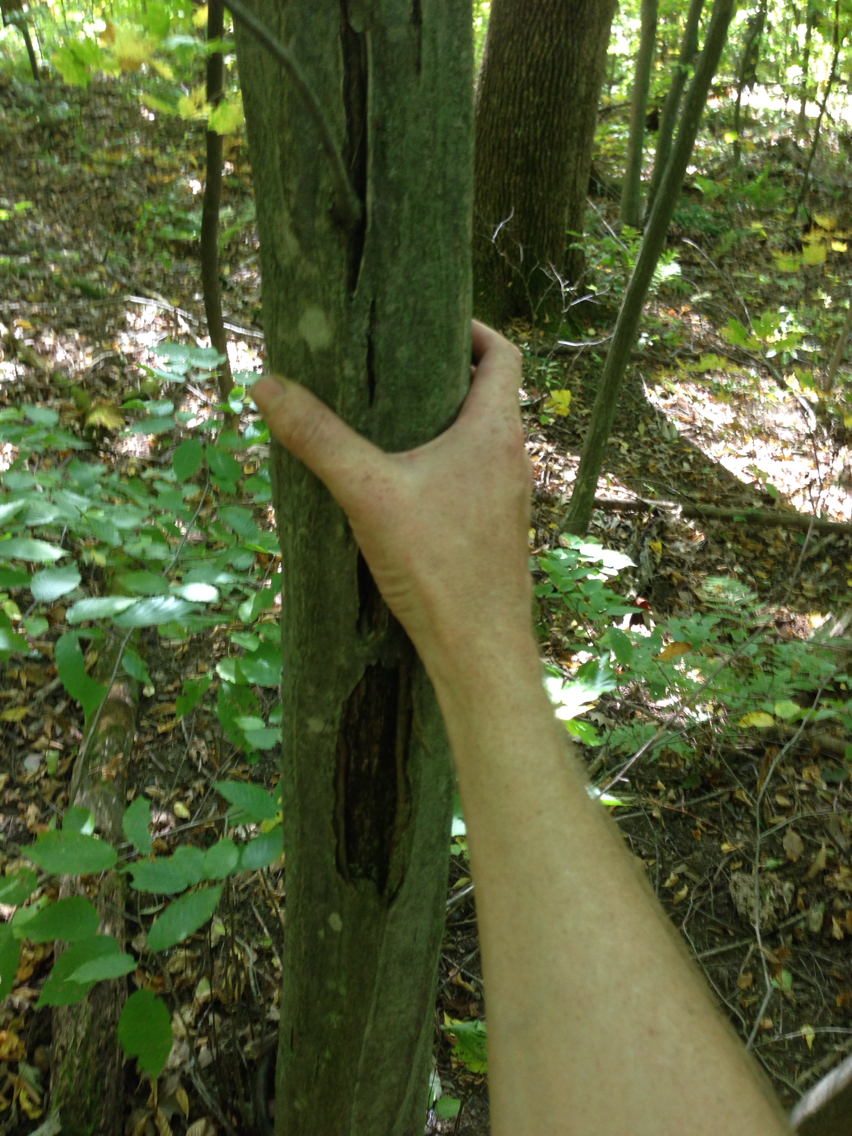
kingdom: Plantae
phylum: Tracheophyta
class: Magnoliopsida
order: Fagales
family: Betulaceae
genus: Carpinus
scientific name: Carpinus caroliniana
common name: American hornbeam
